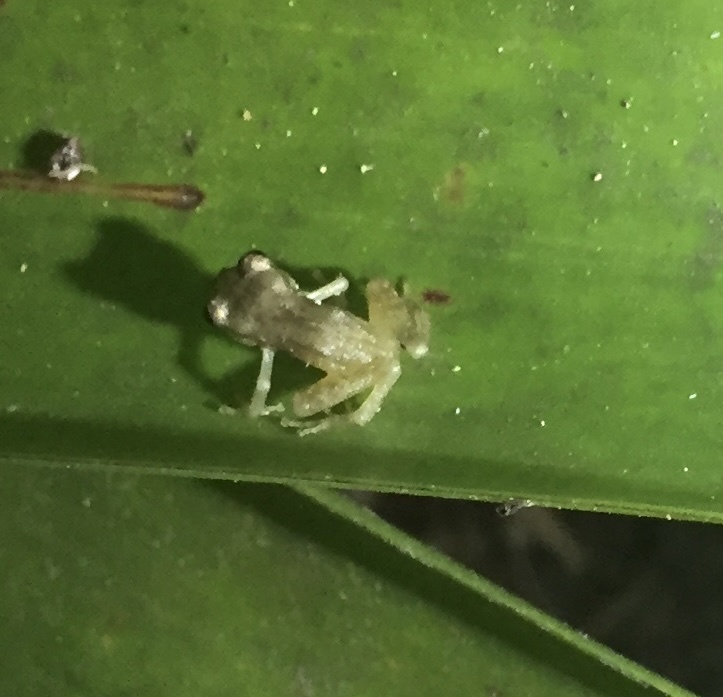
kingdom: Animalia
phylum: Chordata
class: Amphibia
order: Anura
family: Craugastoridae
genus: Tachiramantis
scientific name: Tachiramantis
